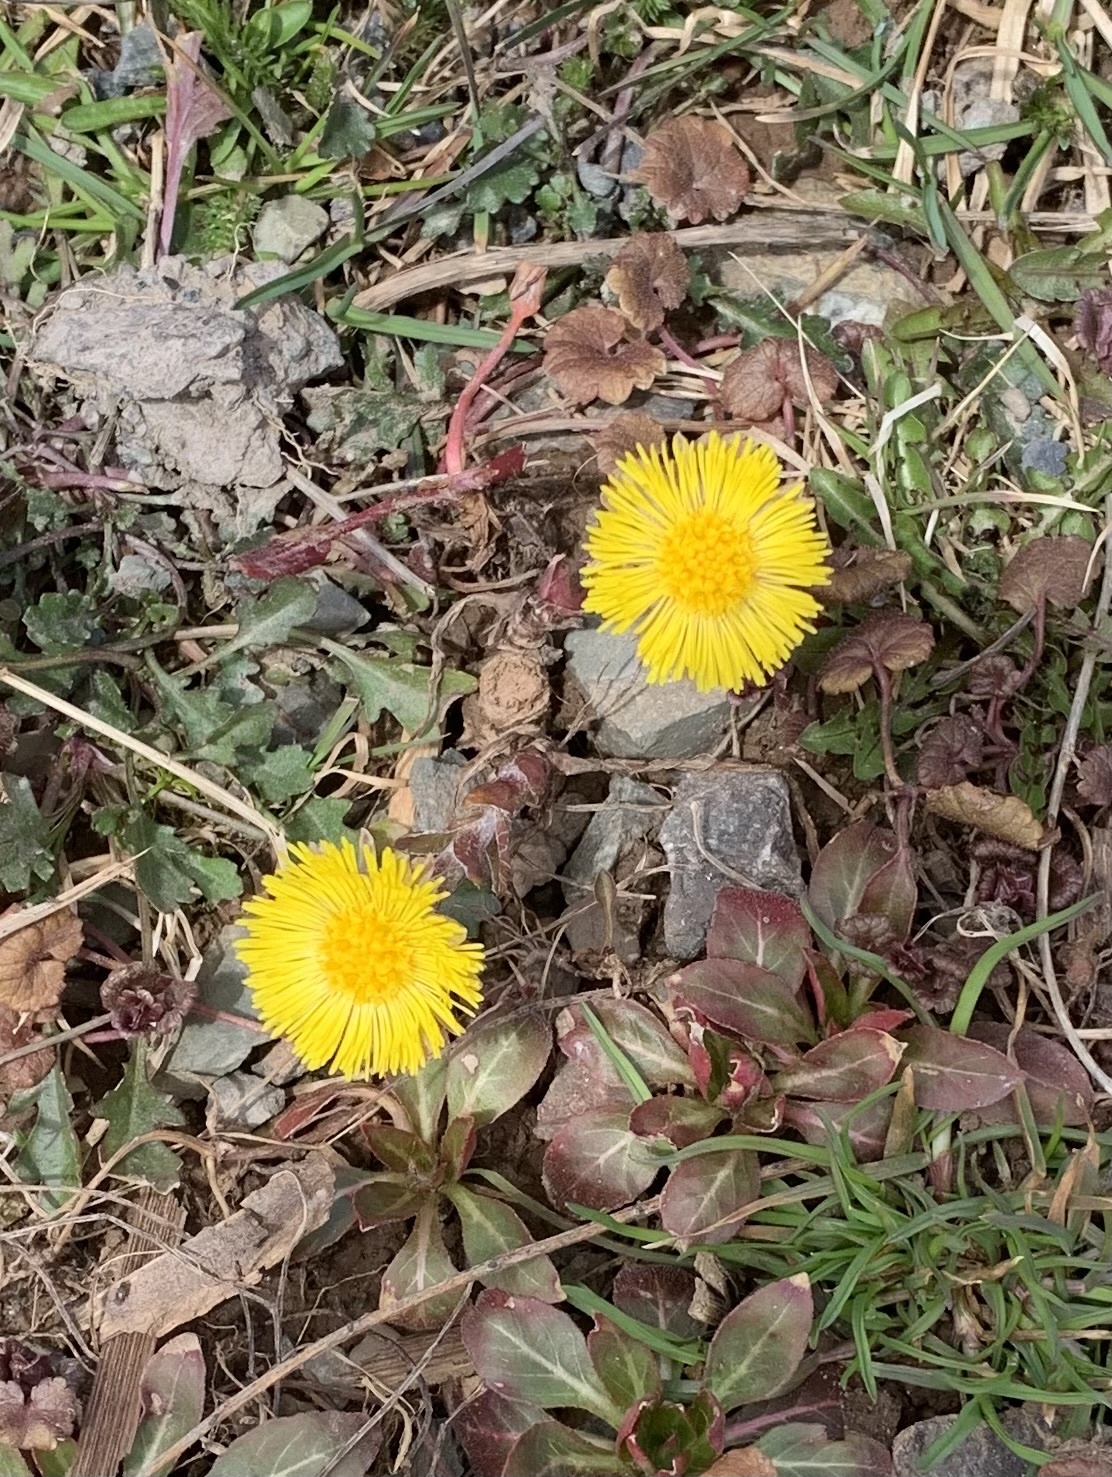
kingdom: Plantae
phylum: Tracheophyta
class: Magnoliopsida
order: Asterales
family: Asteraceae
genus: Tussilago
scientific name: Tussilago farfara
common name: Coltsfoot
